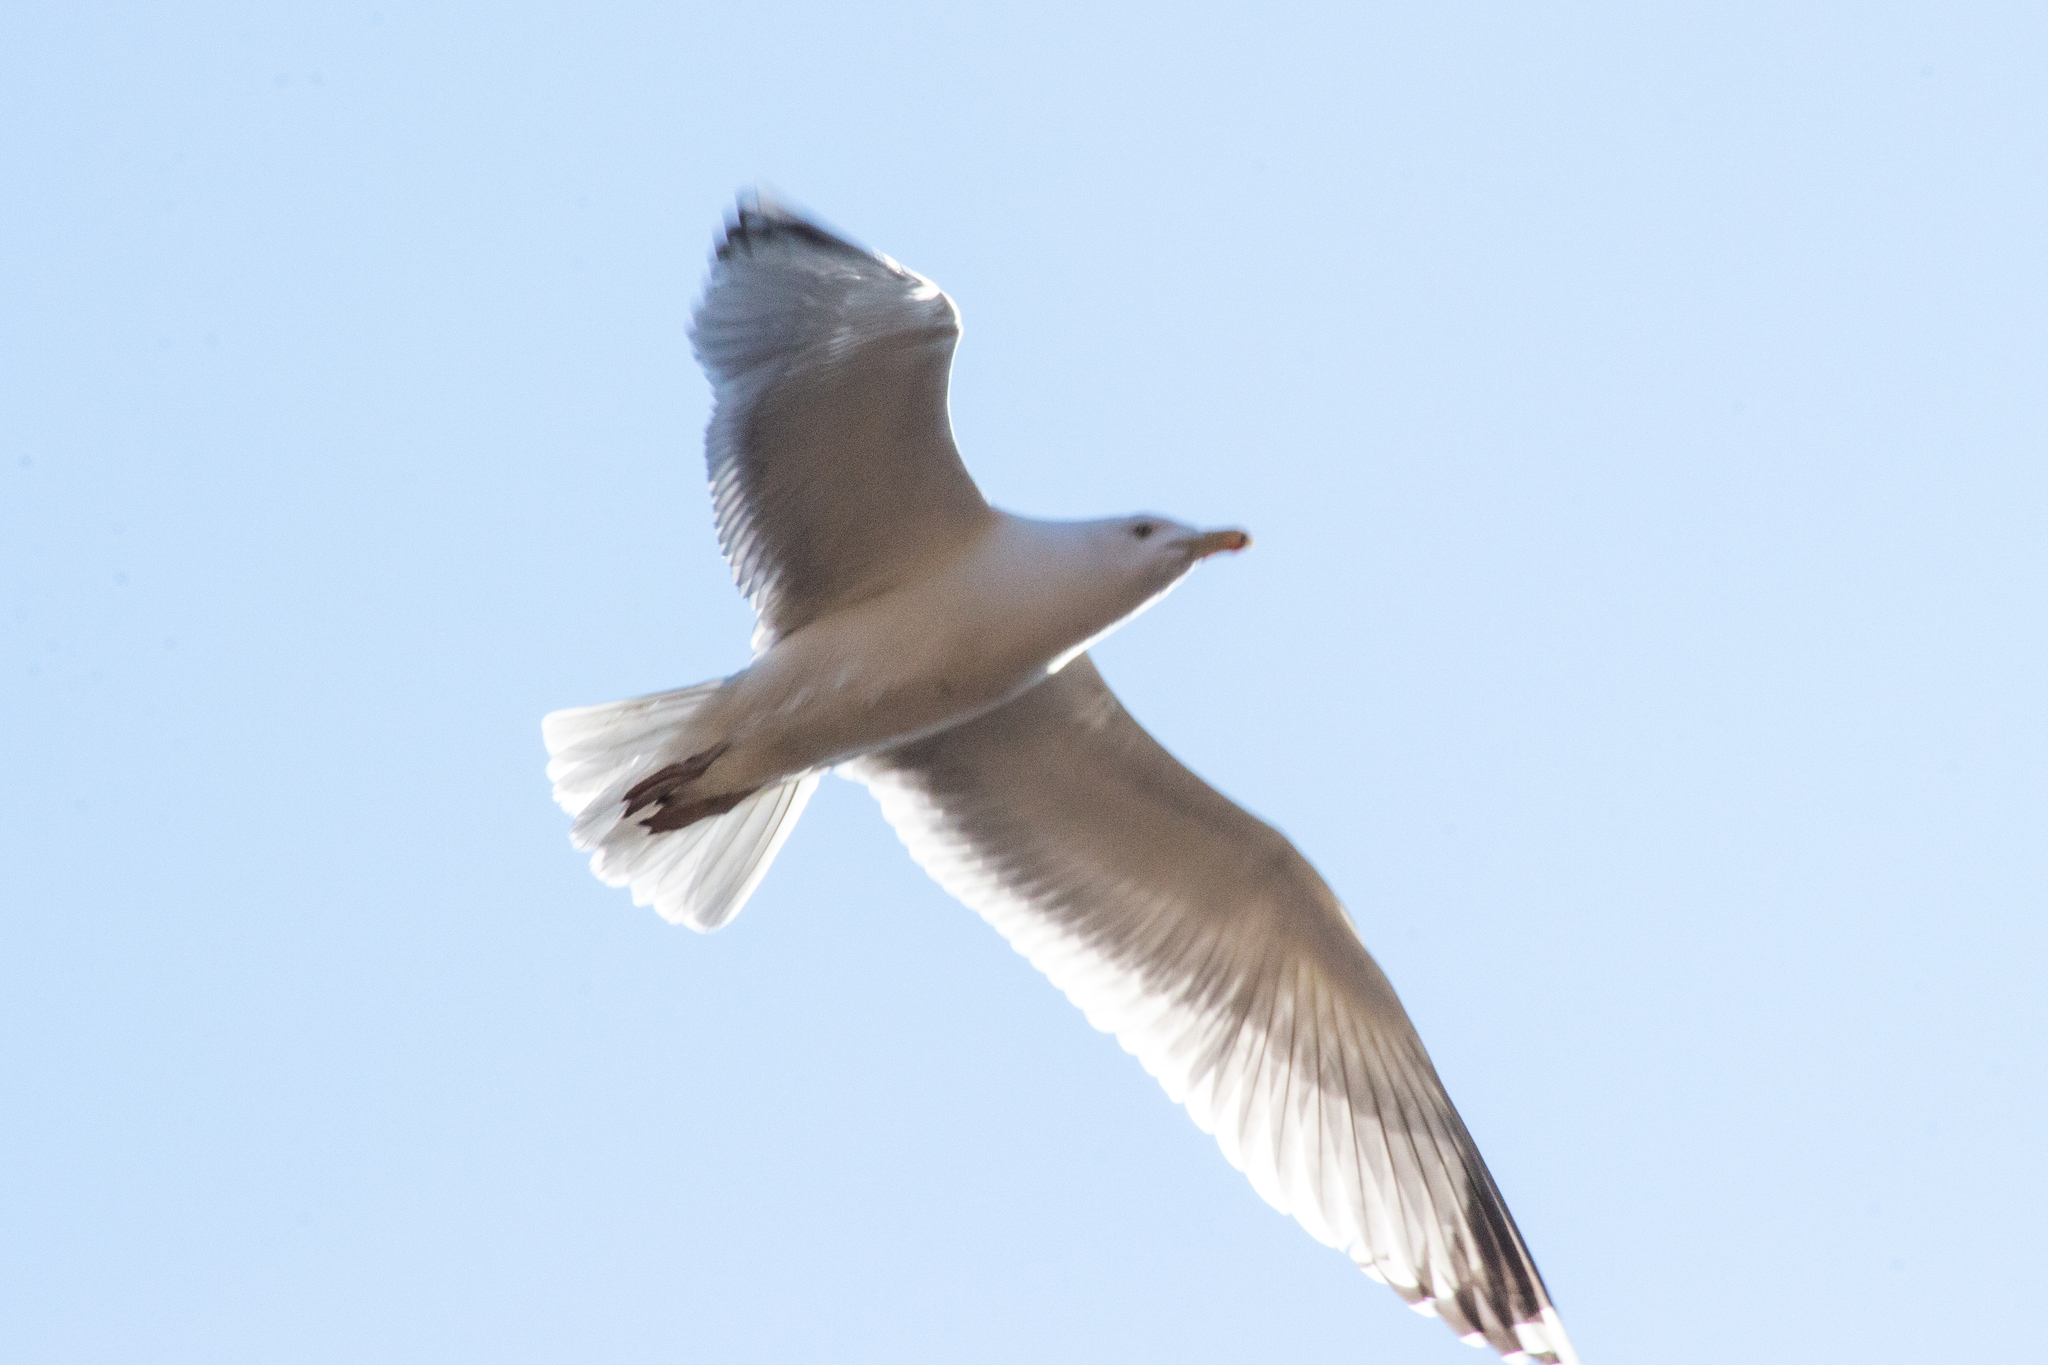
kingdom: Animalia
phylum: Chordata
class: Aves
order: Charadriiformes
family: Laridae
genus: Larus
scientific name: Larus cachinnans
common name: Caspian gull
